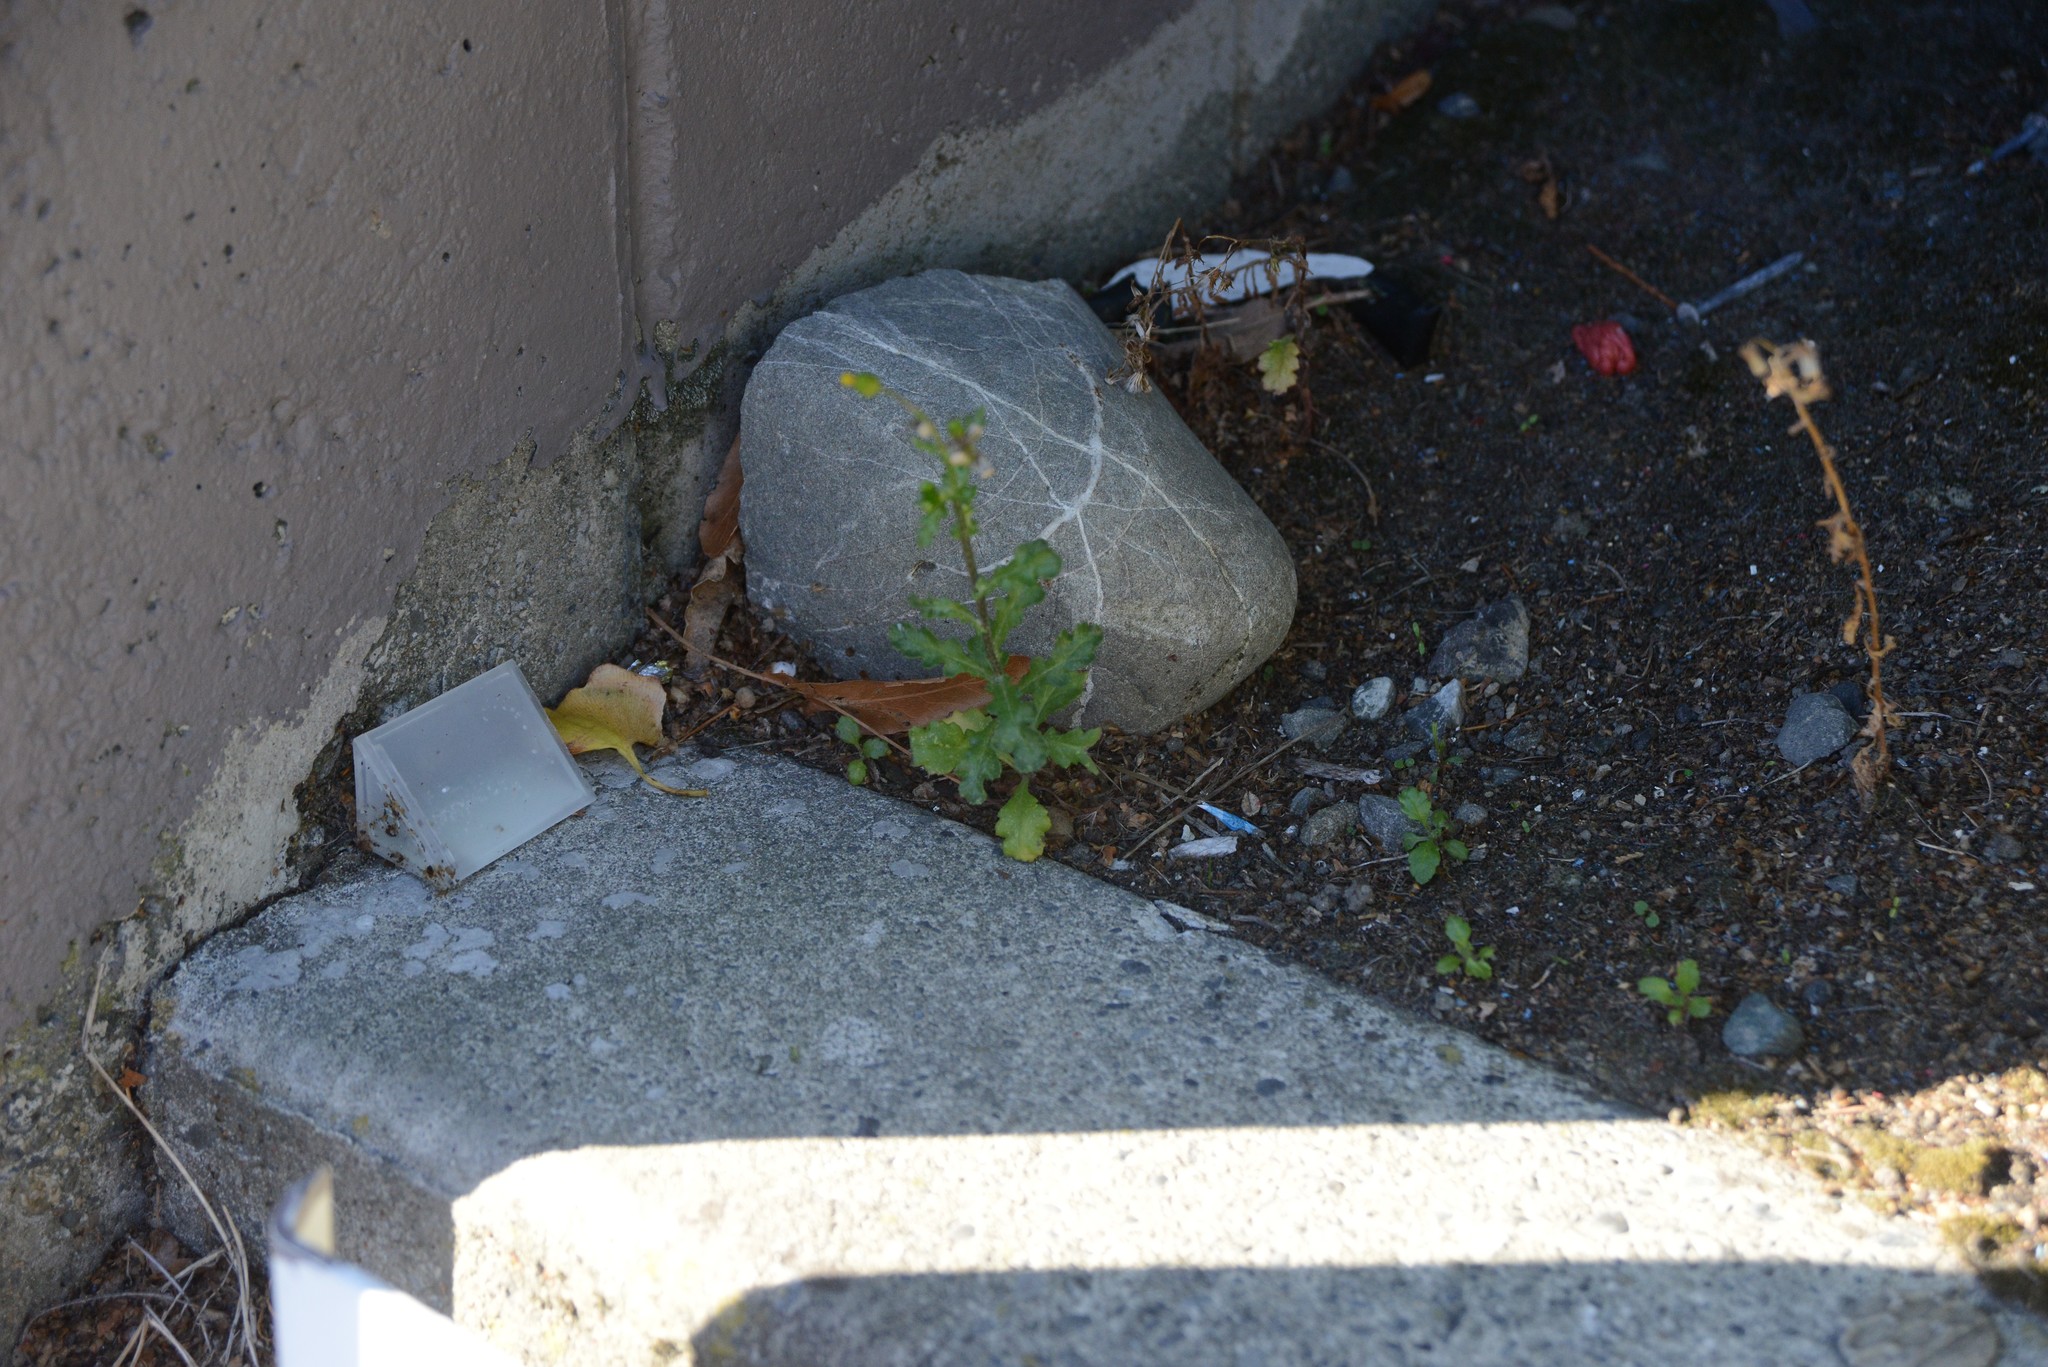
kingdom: Plantae
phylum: Tracheophyta
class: Magnoliopsida
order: Asterales
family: Asteraceae
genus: Senecio
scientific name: Senecio vulgaris
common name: Old-man-in-the-spring
